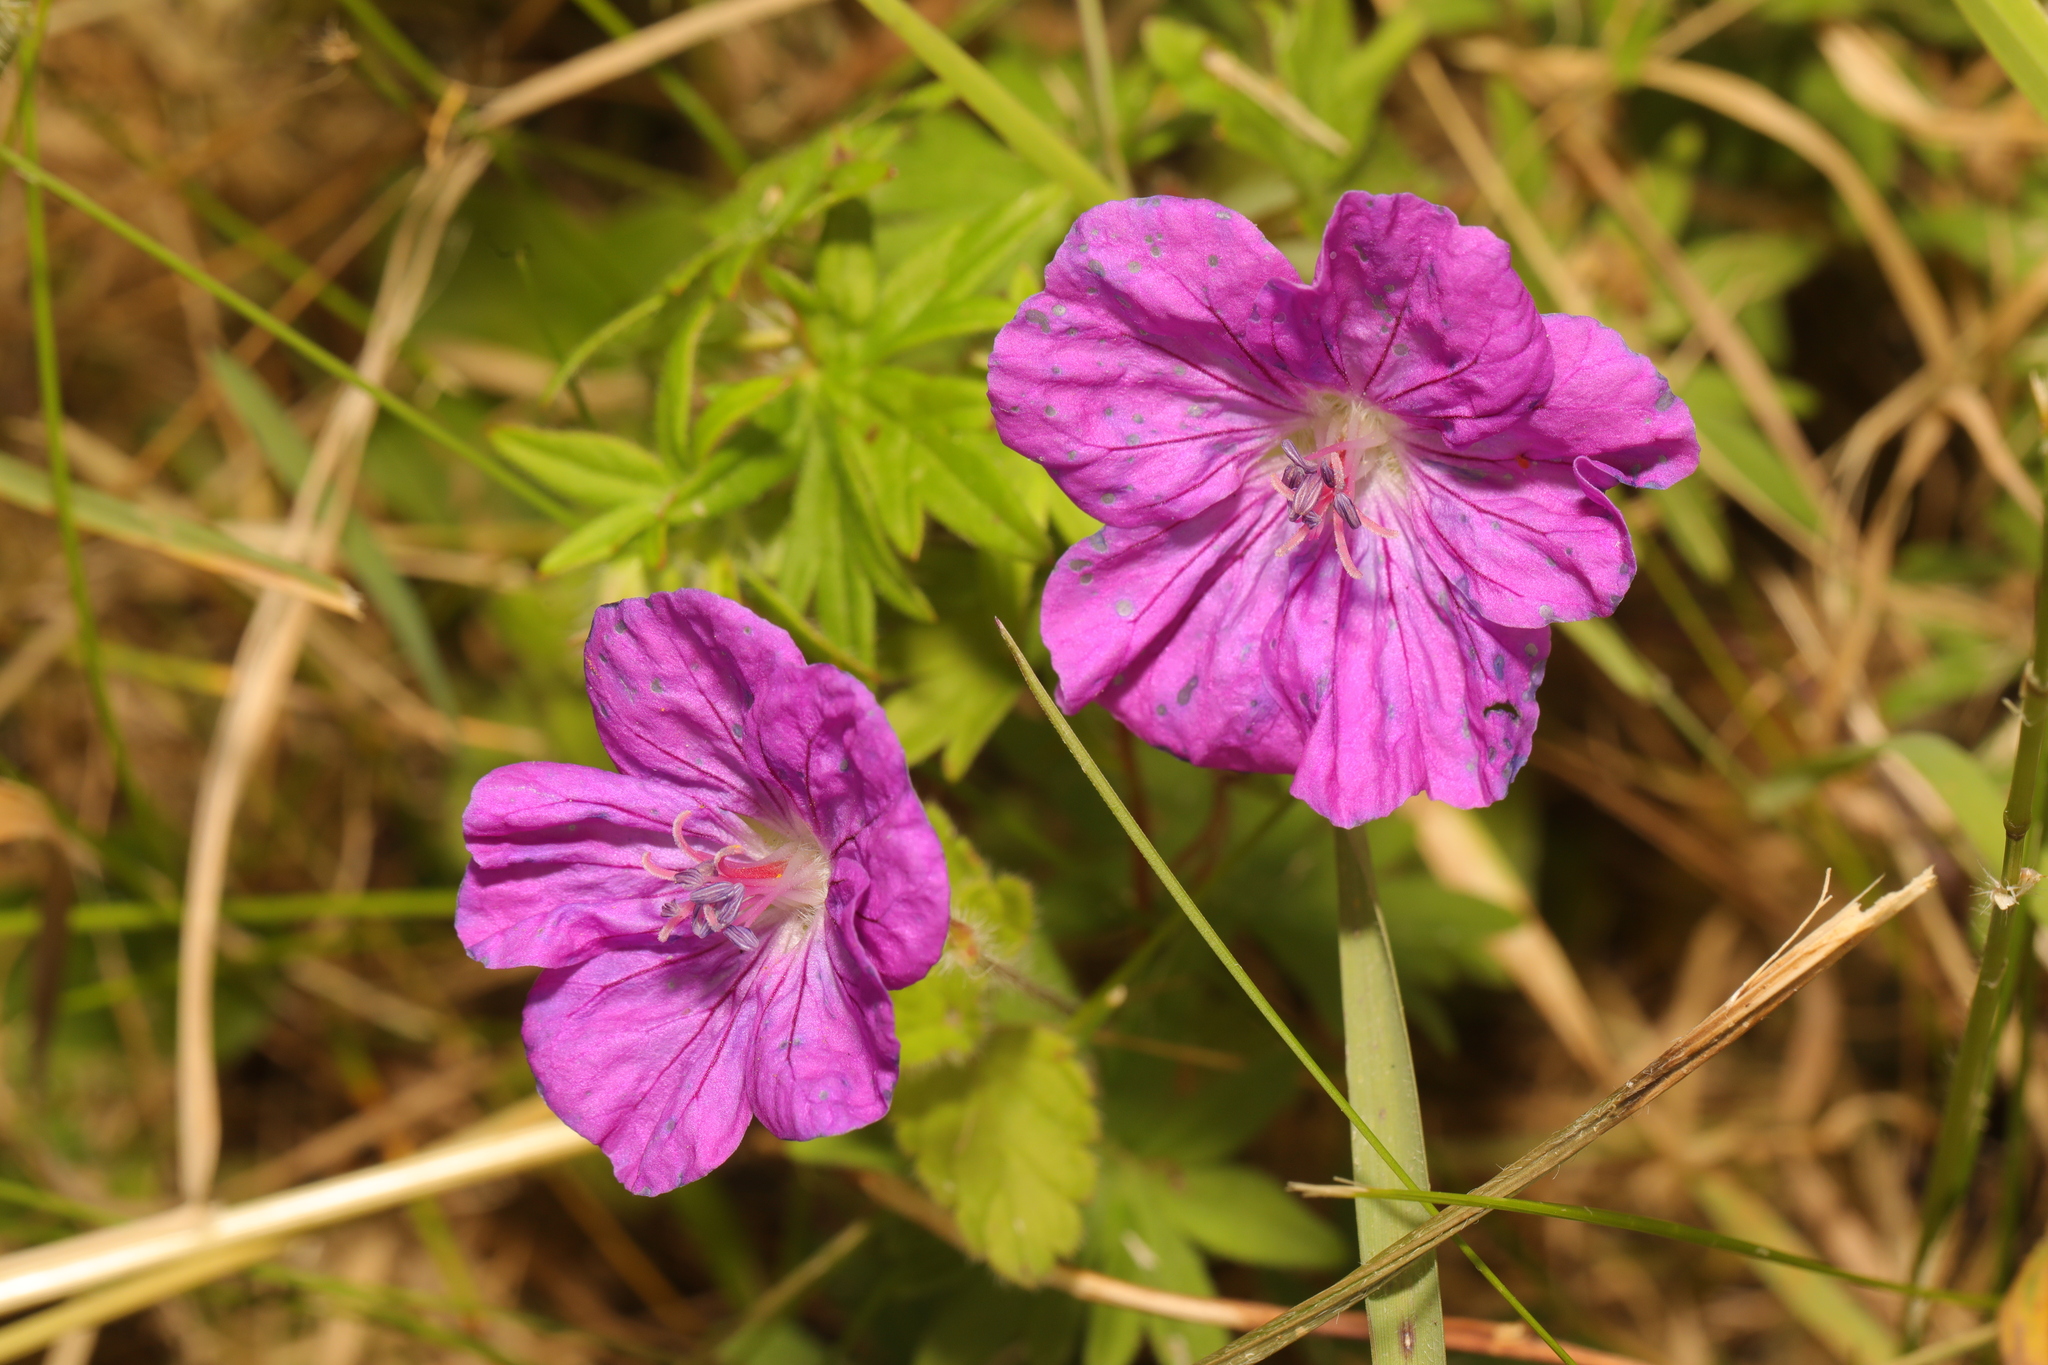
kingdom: Plantae
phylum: Tracheophyta
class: Magnoliopsida
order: Geraniales
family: Geraniaceae
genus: Geranium
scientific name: Geranium sanguineum
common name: Bloody crane's-bill
